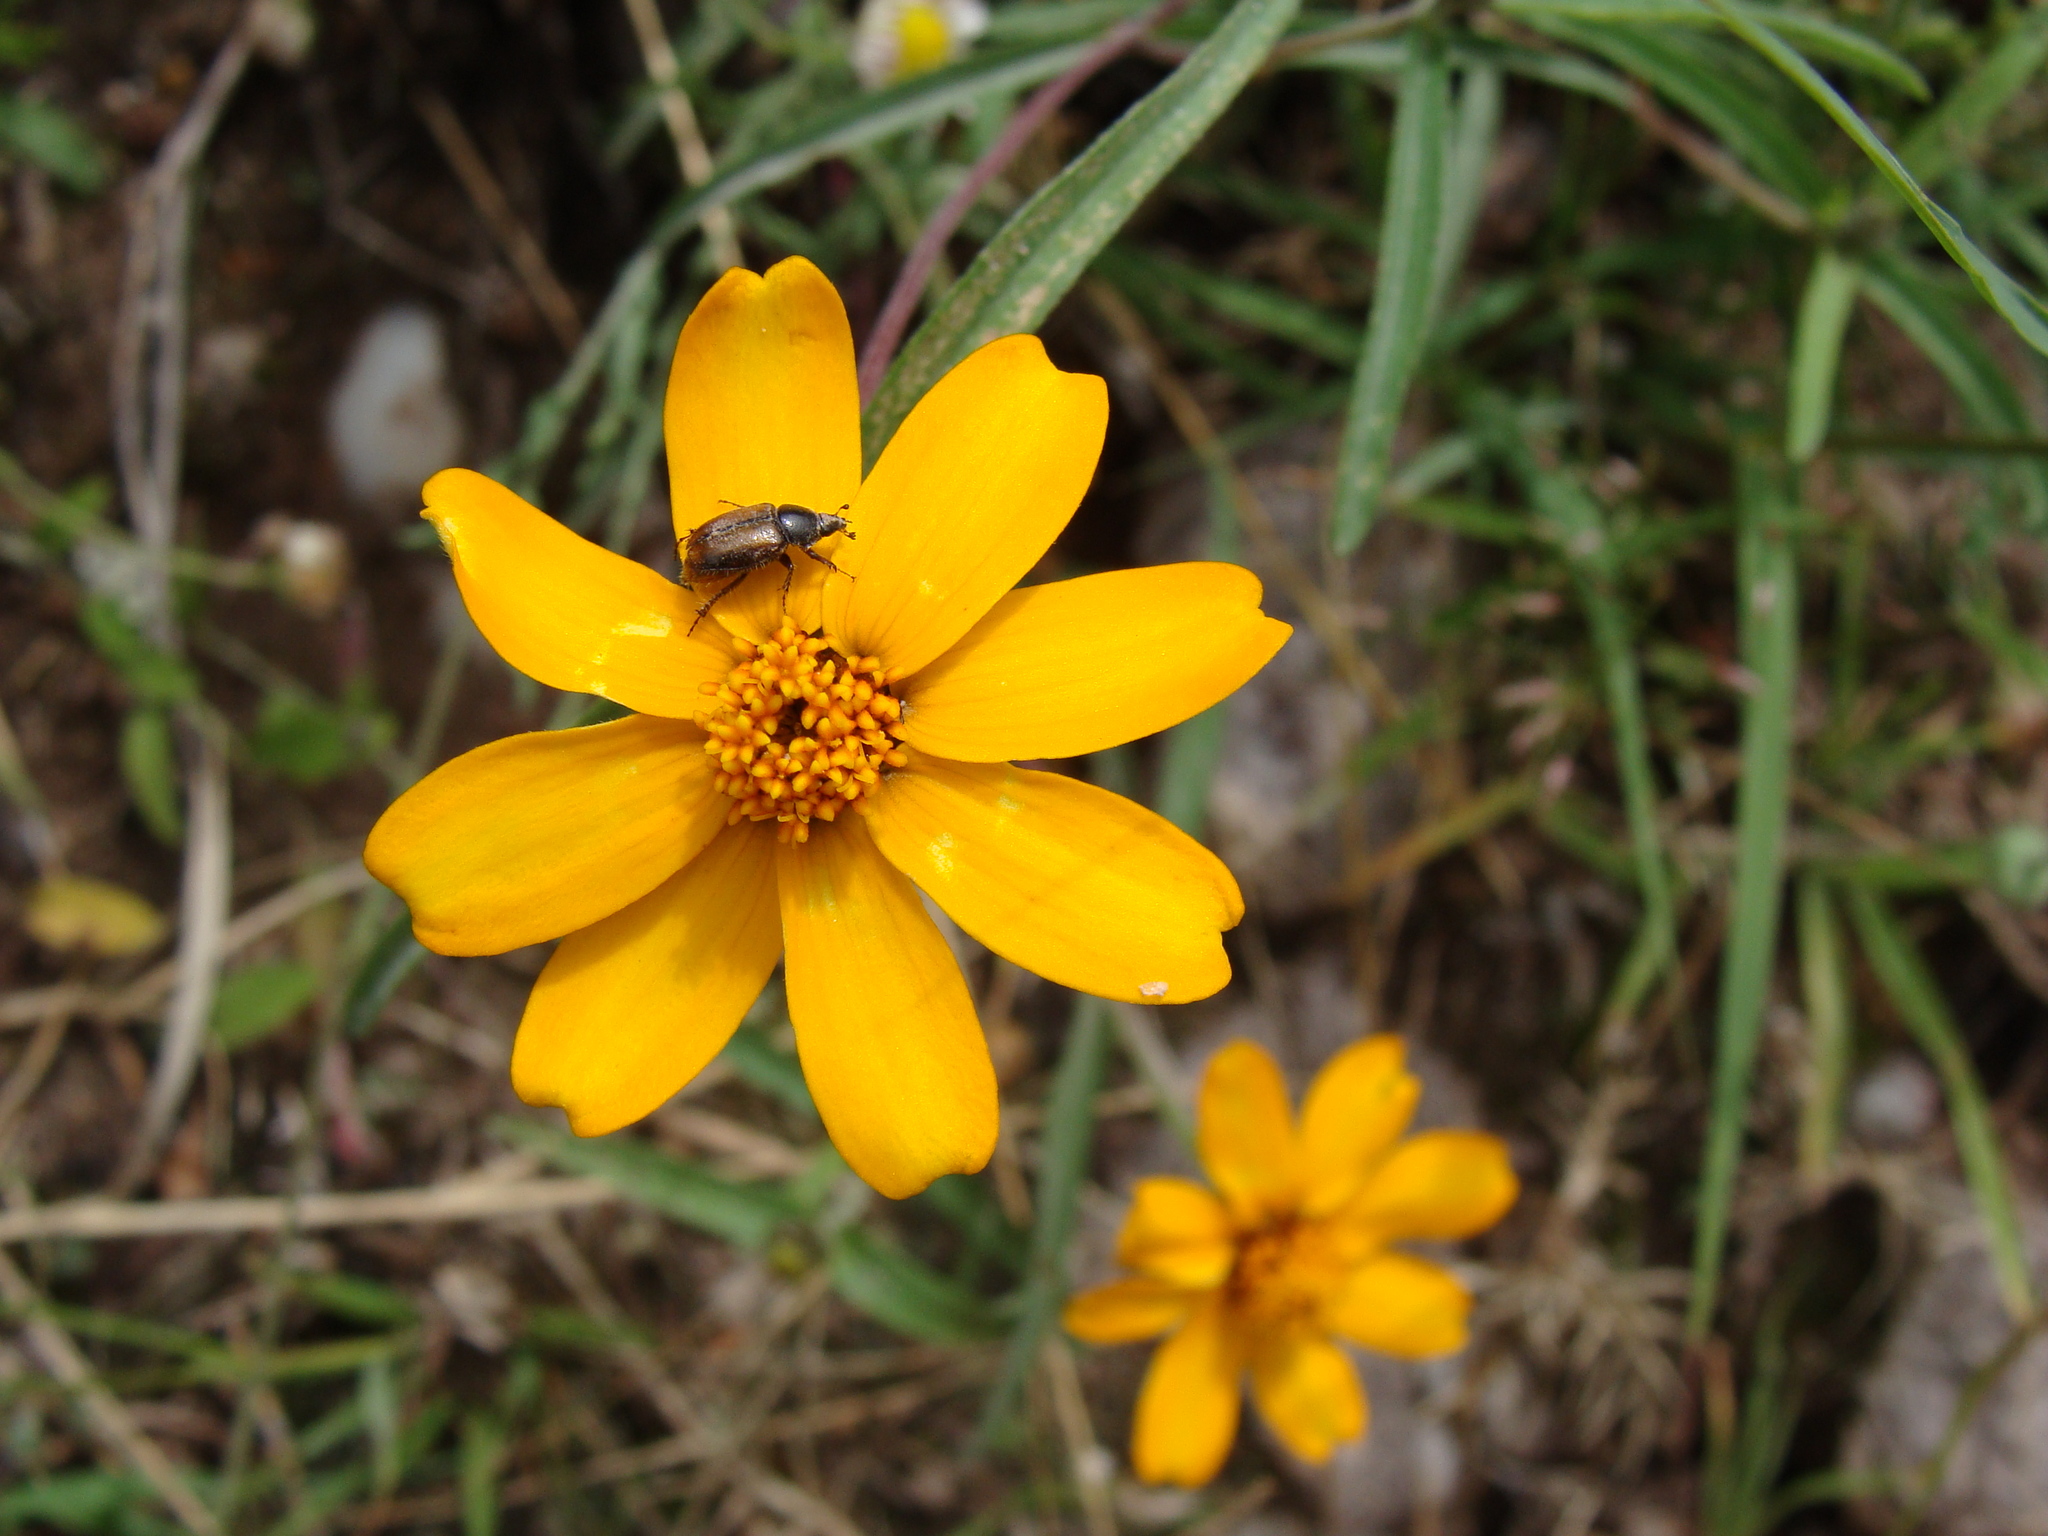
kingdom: Plantae
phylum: Tracheophyta
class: Magnoliopsida
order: Asterales
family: Asteraceae
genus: Zinnia
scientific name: Zinnia angustifolia
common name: Narrowleaf zinnia
